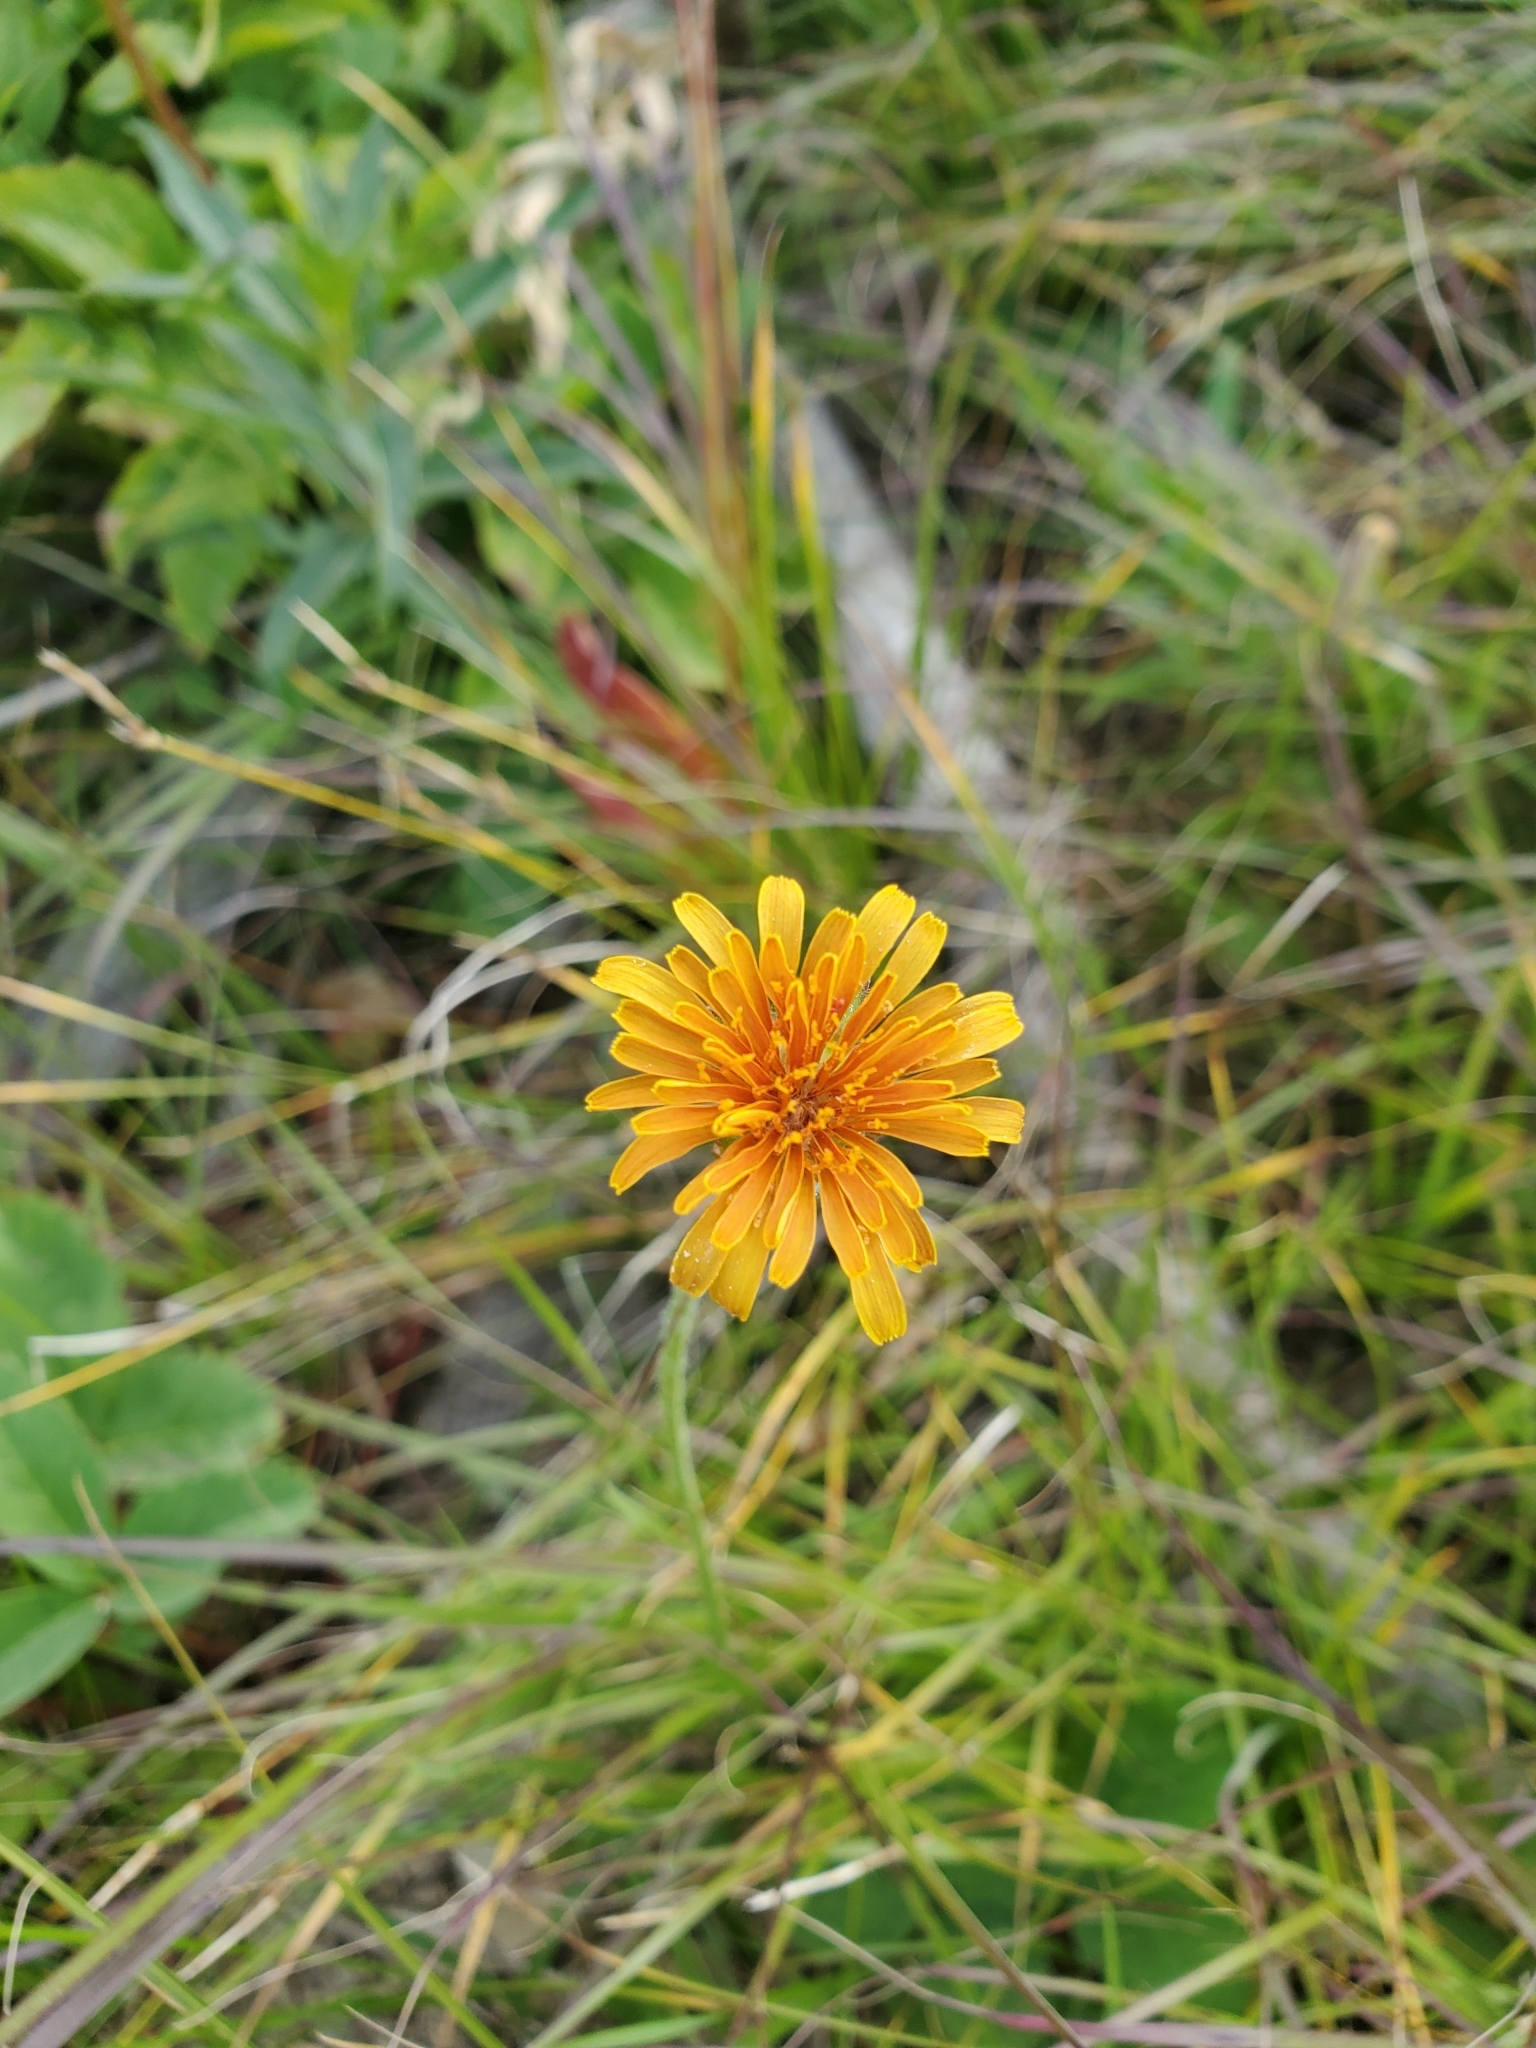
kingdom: Plantae
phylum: Tracheophyta
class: Magnoliopsida
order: Asterales
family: Asteraceae
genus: Agoseris
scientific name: Agoseris aurantiaca
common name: Mountain agoseris
